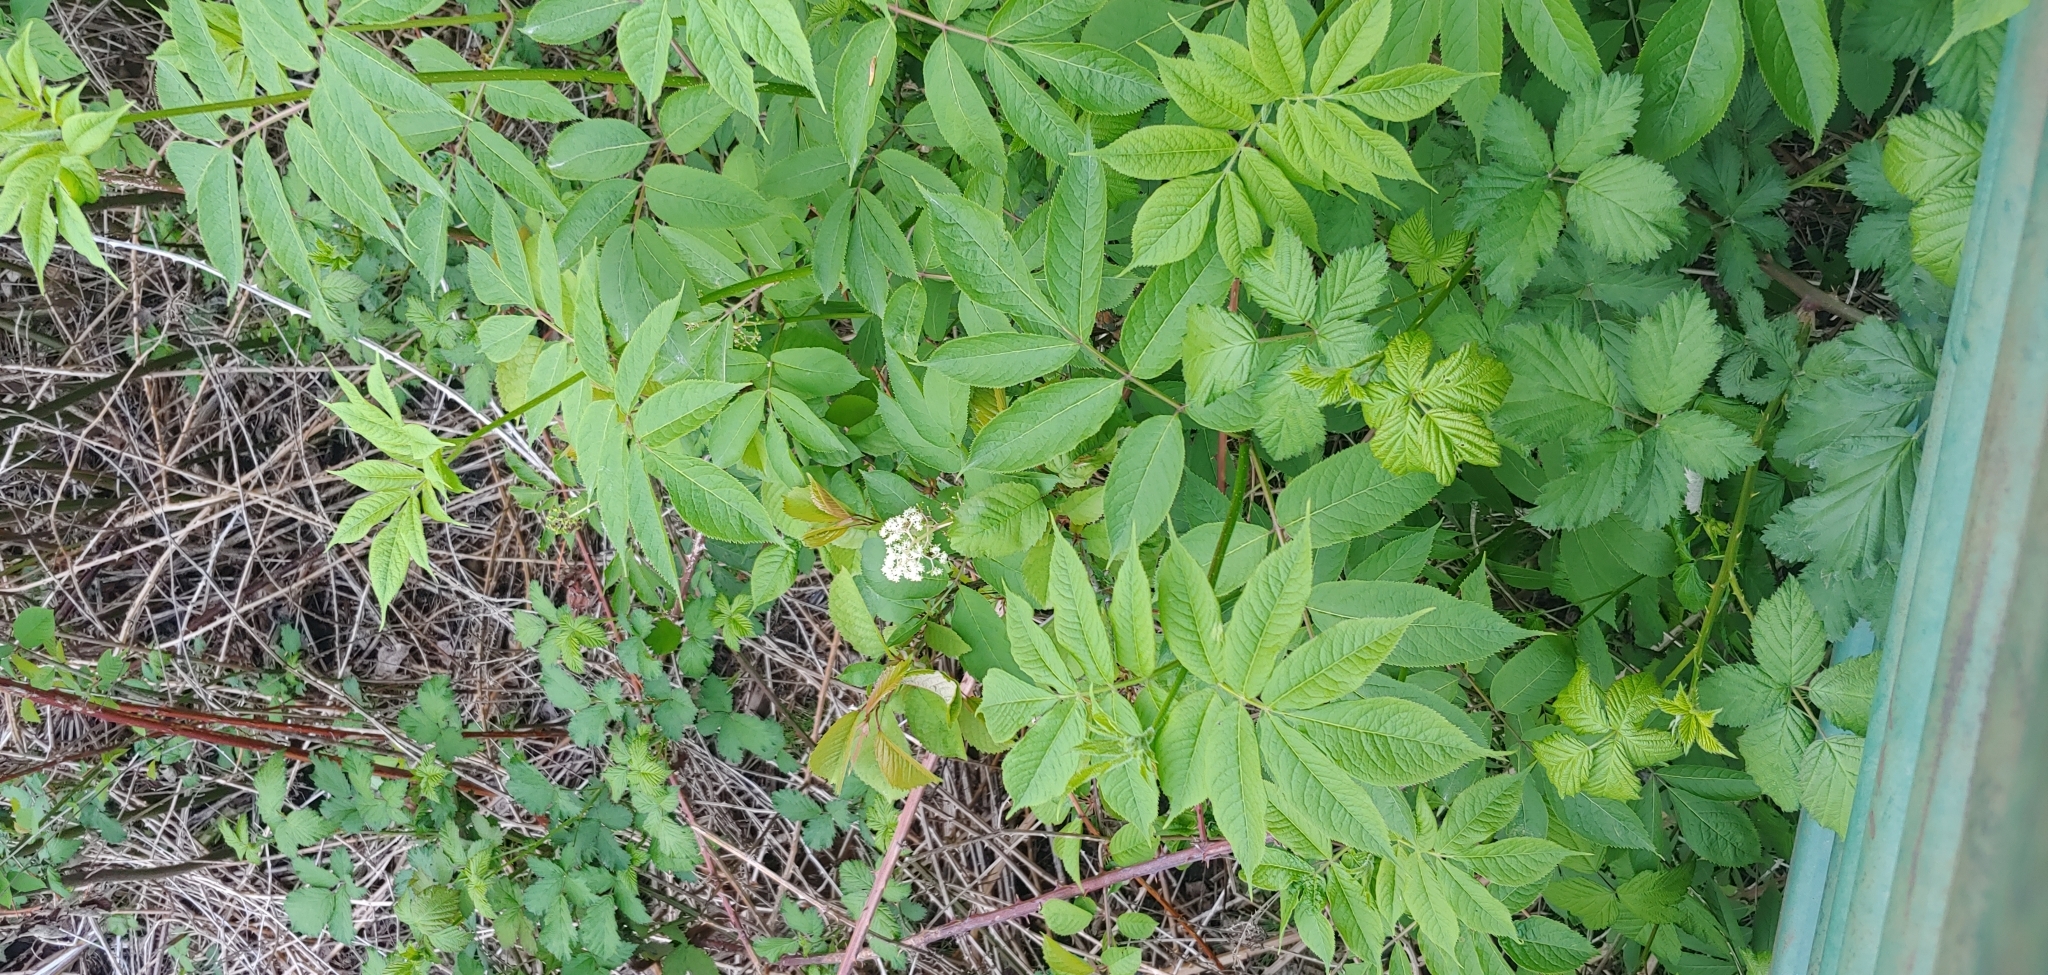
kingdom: Plantae
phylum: Tracheophyta
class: Magnoliopsida
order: Dipsacales
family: Viburnaceae
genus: Sambucus
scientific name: Sambucus racemosa
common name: Red-berried elder
